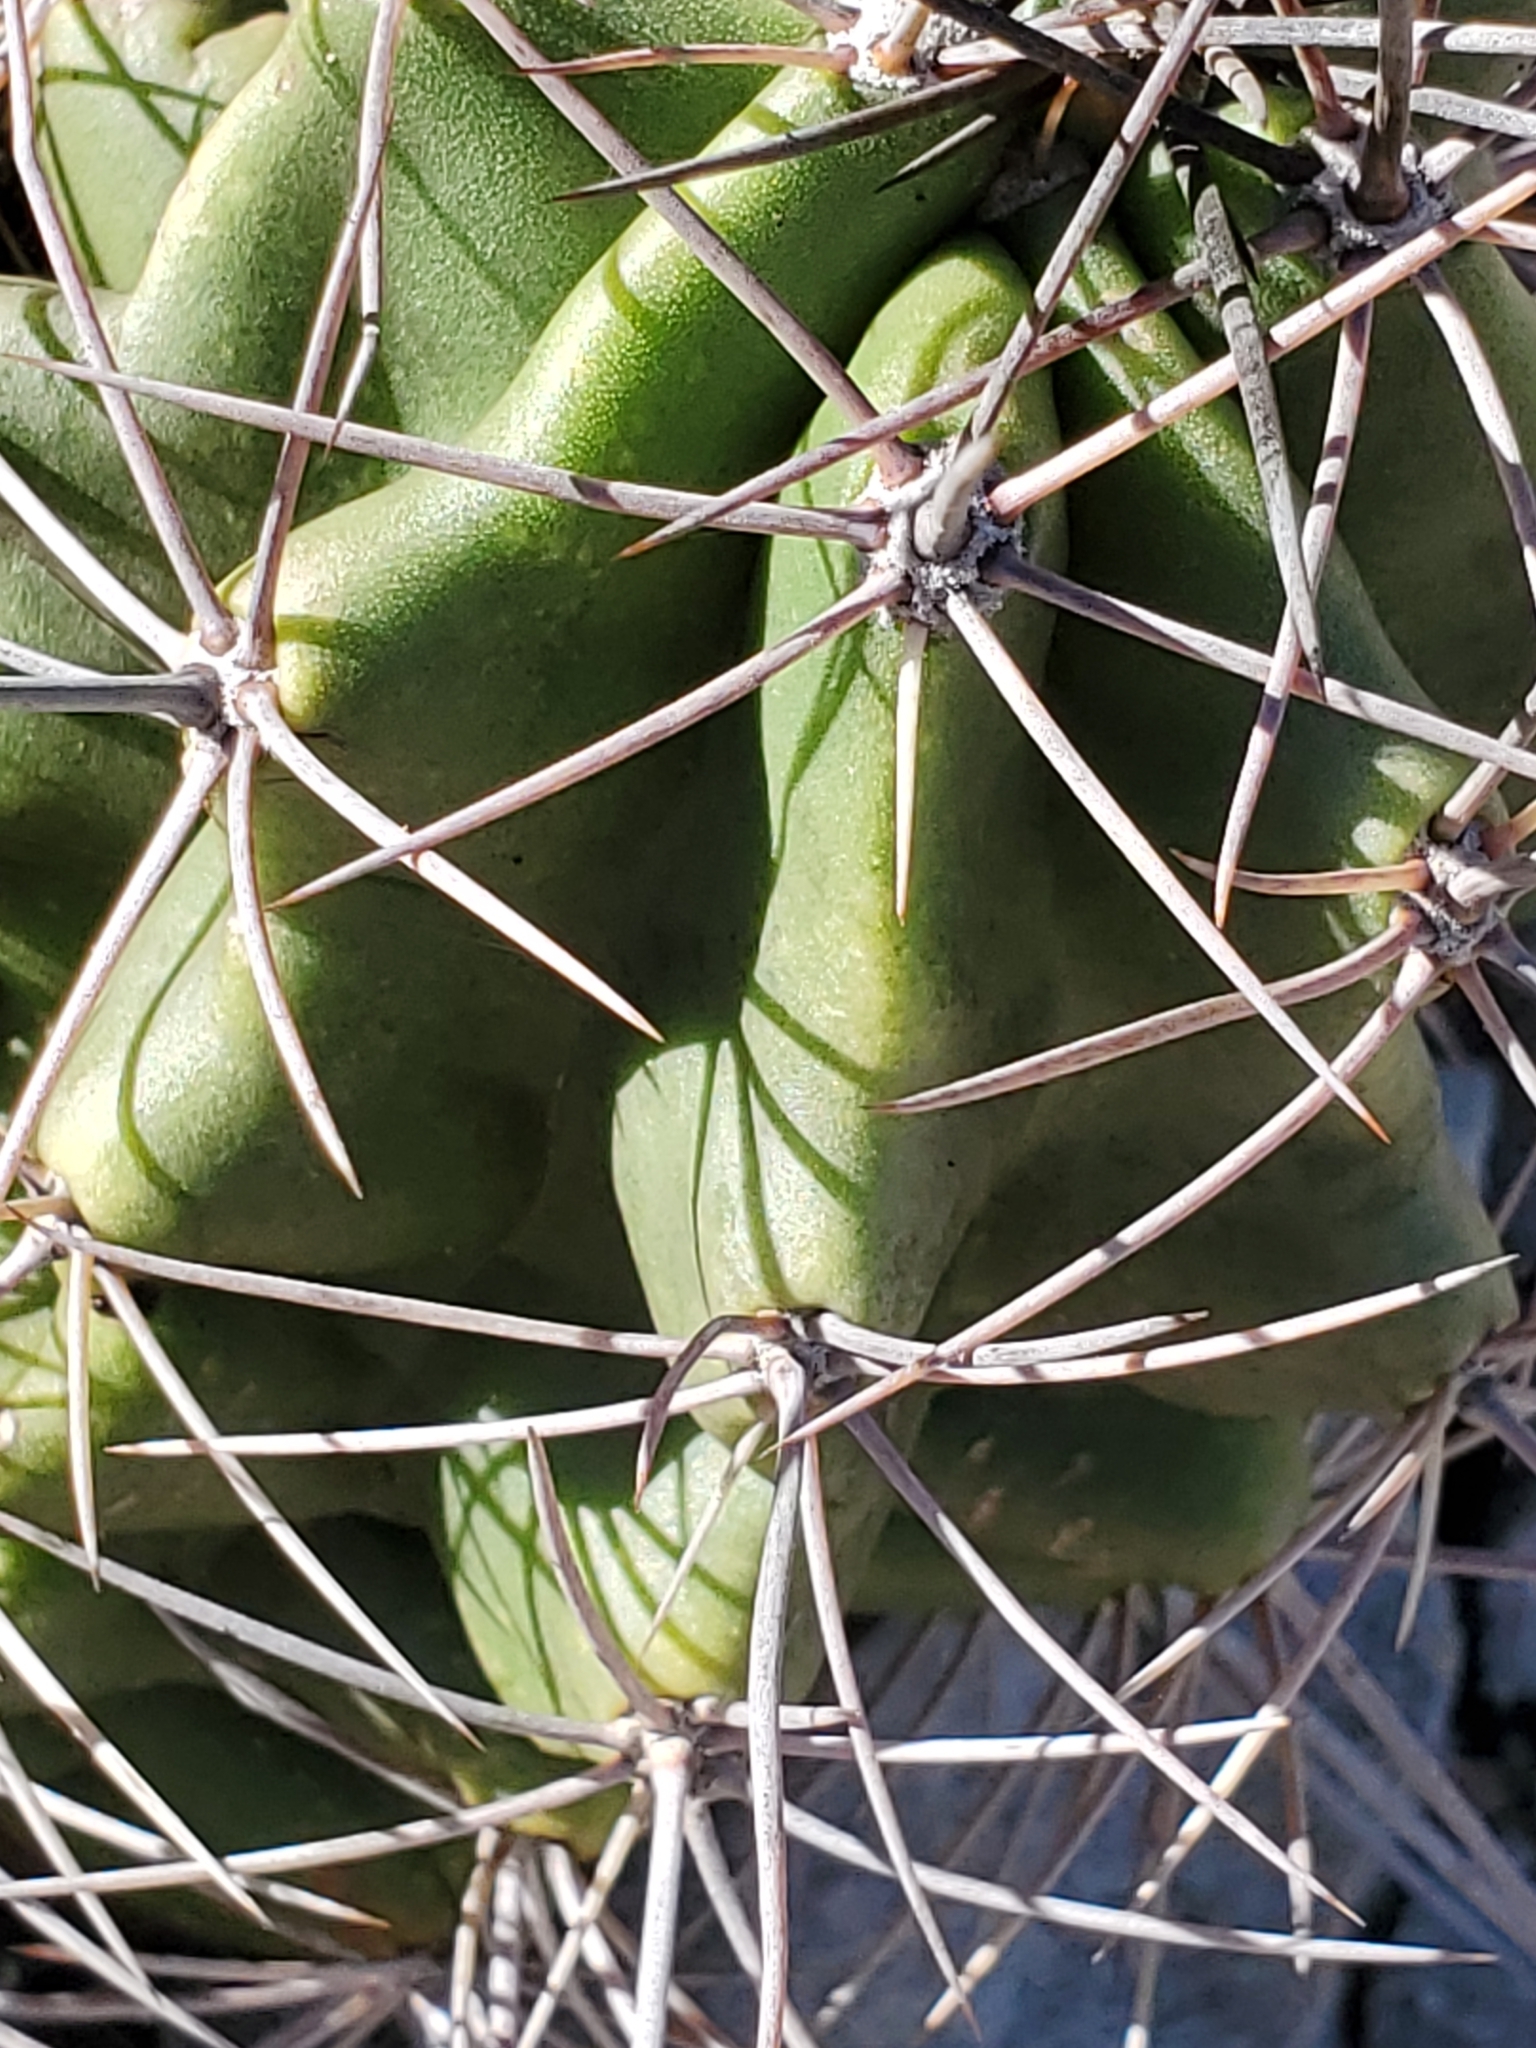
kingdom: Plantae
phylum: Tracheophyta
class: Magnoliopsida
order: Caryophyllales
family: Cactaceae
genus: Echinocereus
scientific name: Echinocereus coccineus
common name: Scarlet hedgehog cactus
